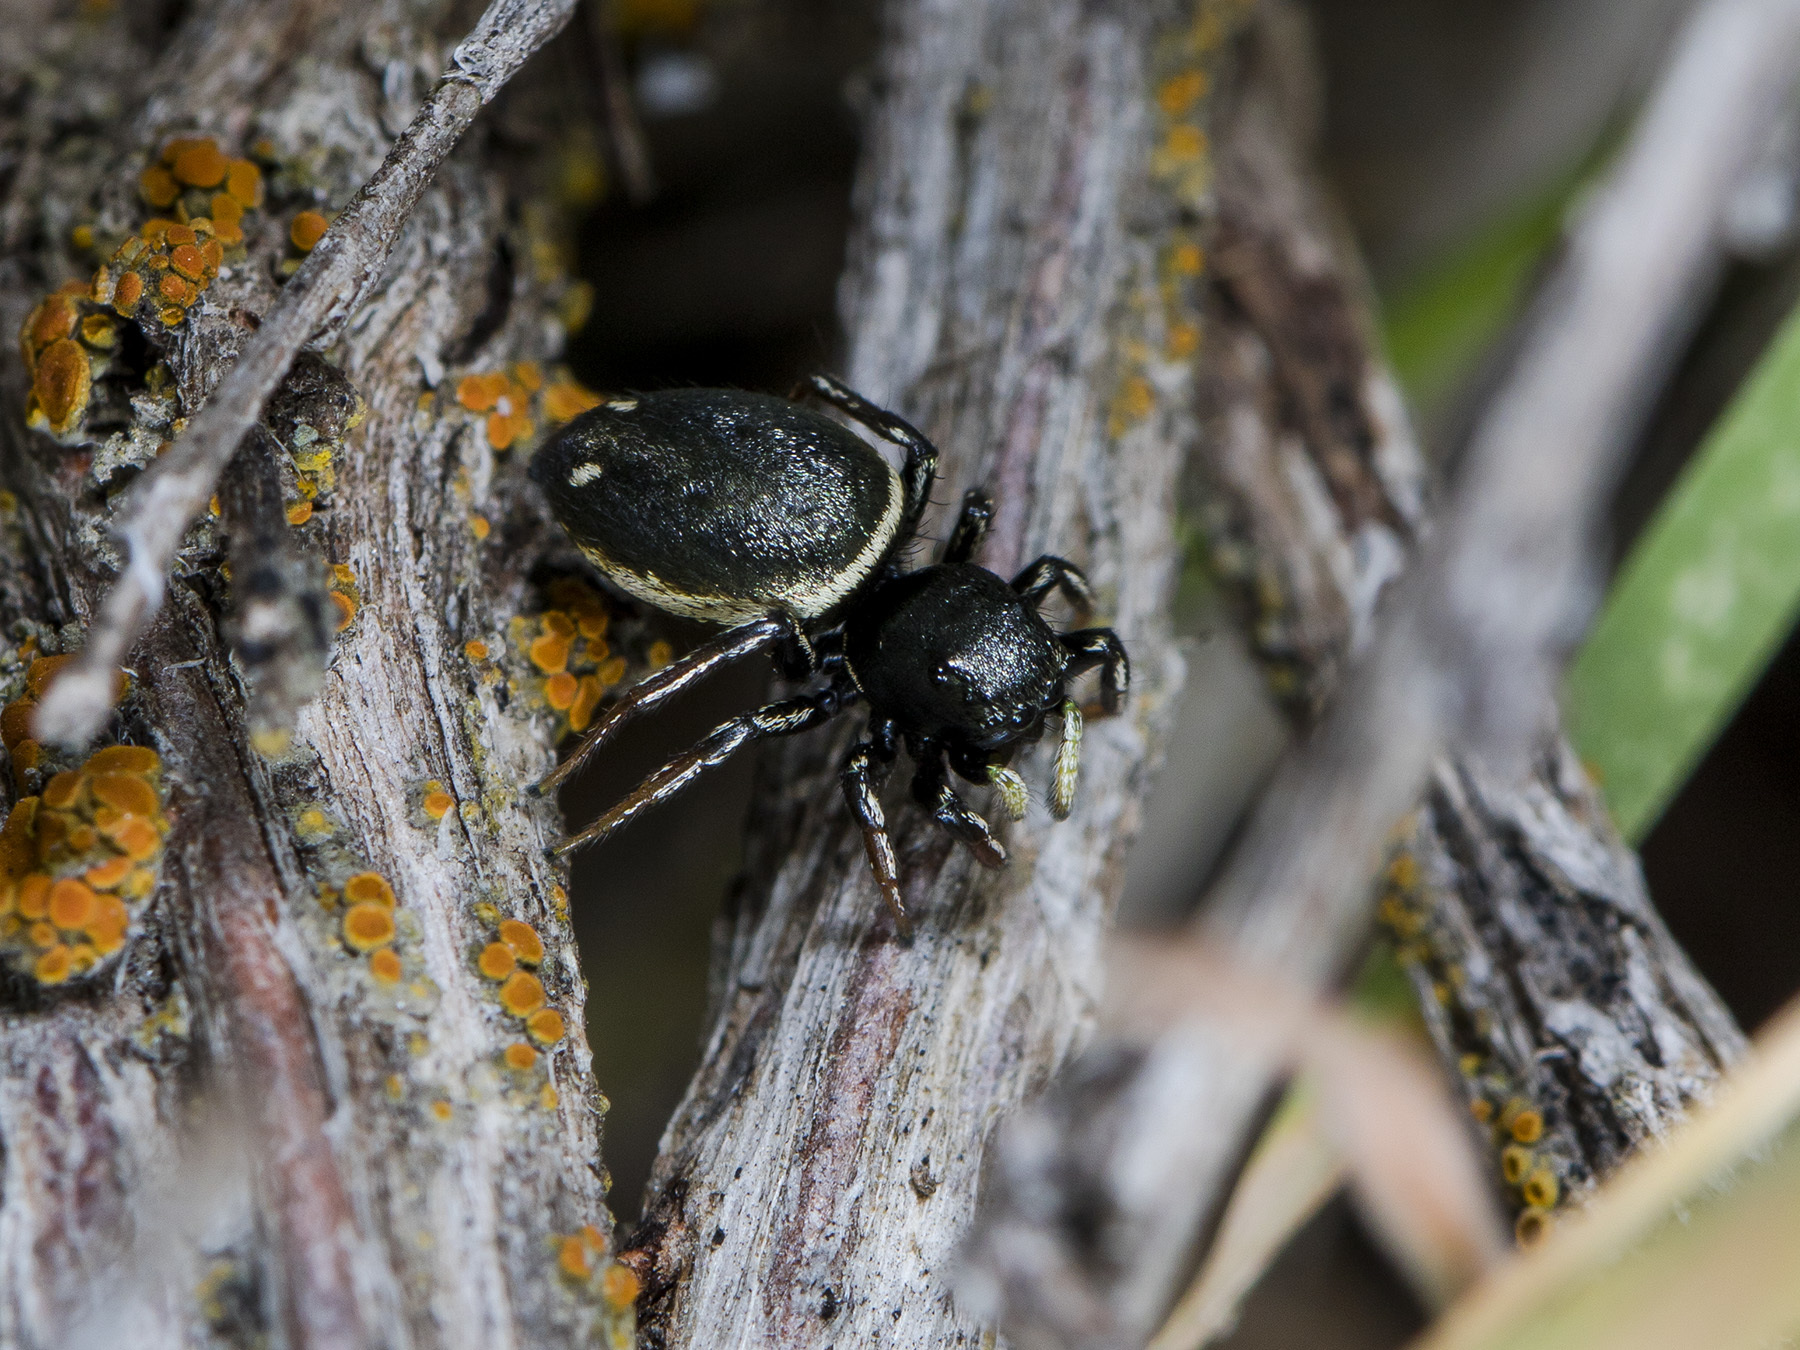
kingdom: Animalia
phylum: Arthropoda
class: Arachnida
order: Araneae
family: Salticidae
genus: Heliophanus
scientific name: Heliophanus chovdensis
